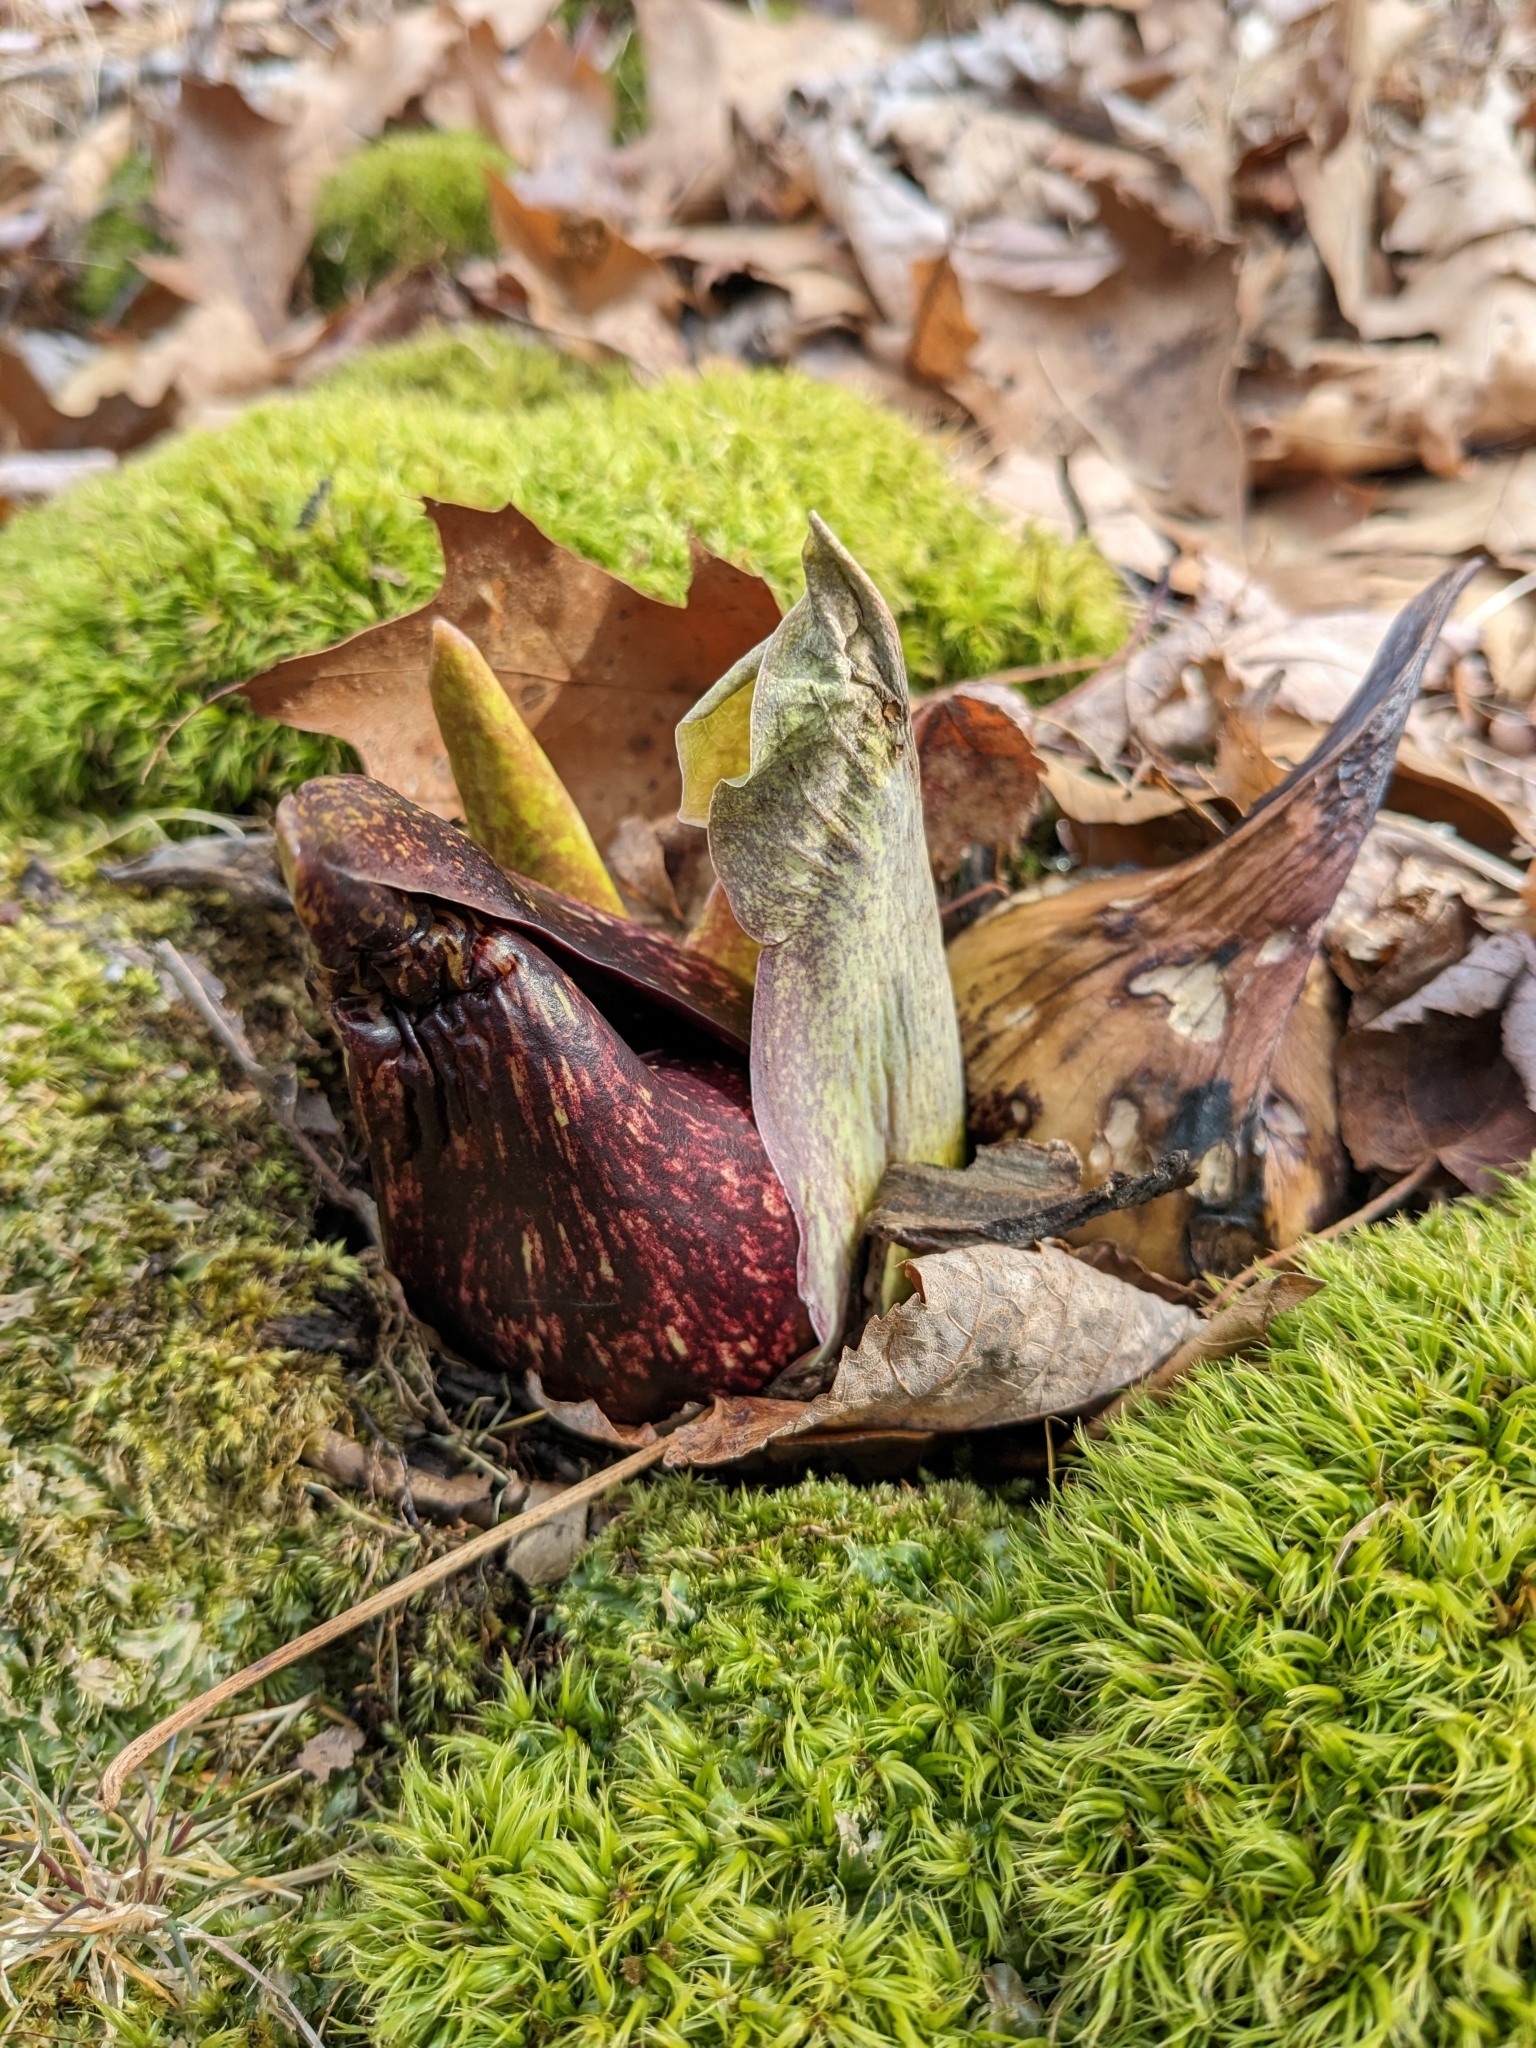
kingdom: Plantae
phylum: Tracheophyta
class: Liliopsida
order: Alismatales
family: Araceae
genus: Symplocarpus
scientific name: Symplocarpus foetidus
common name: Eastern skunk cabbage
